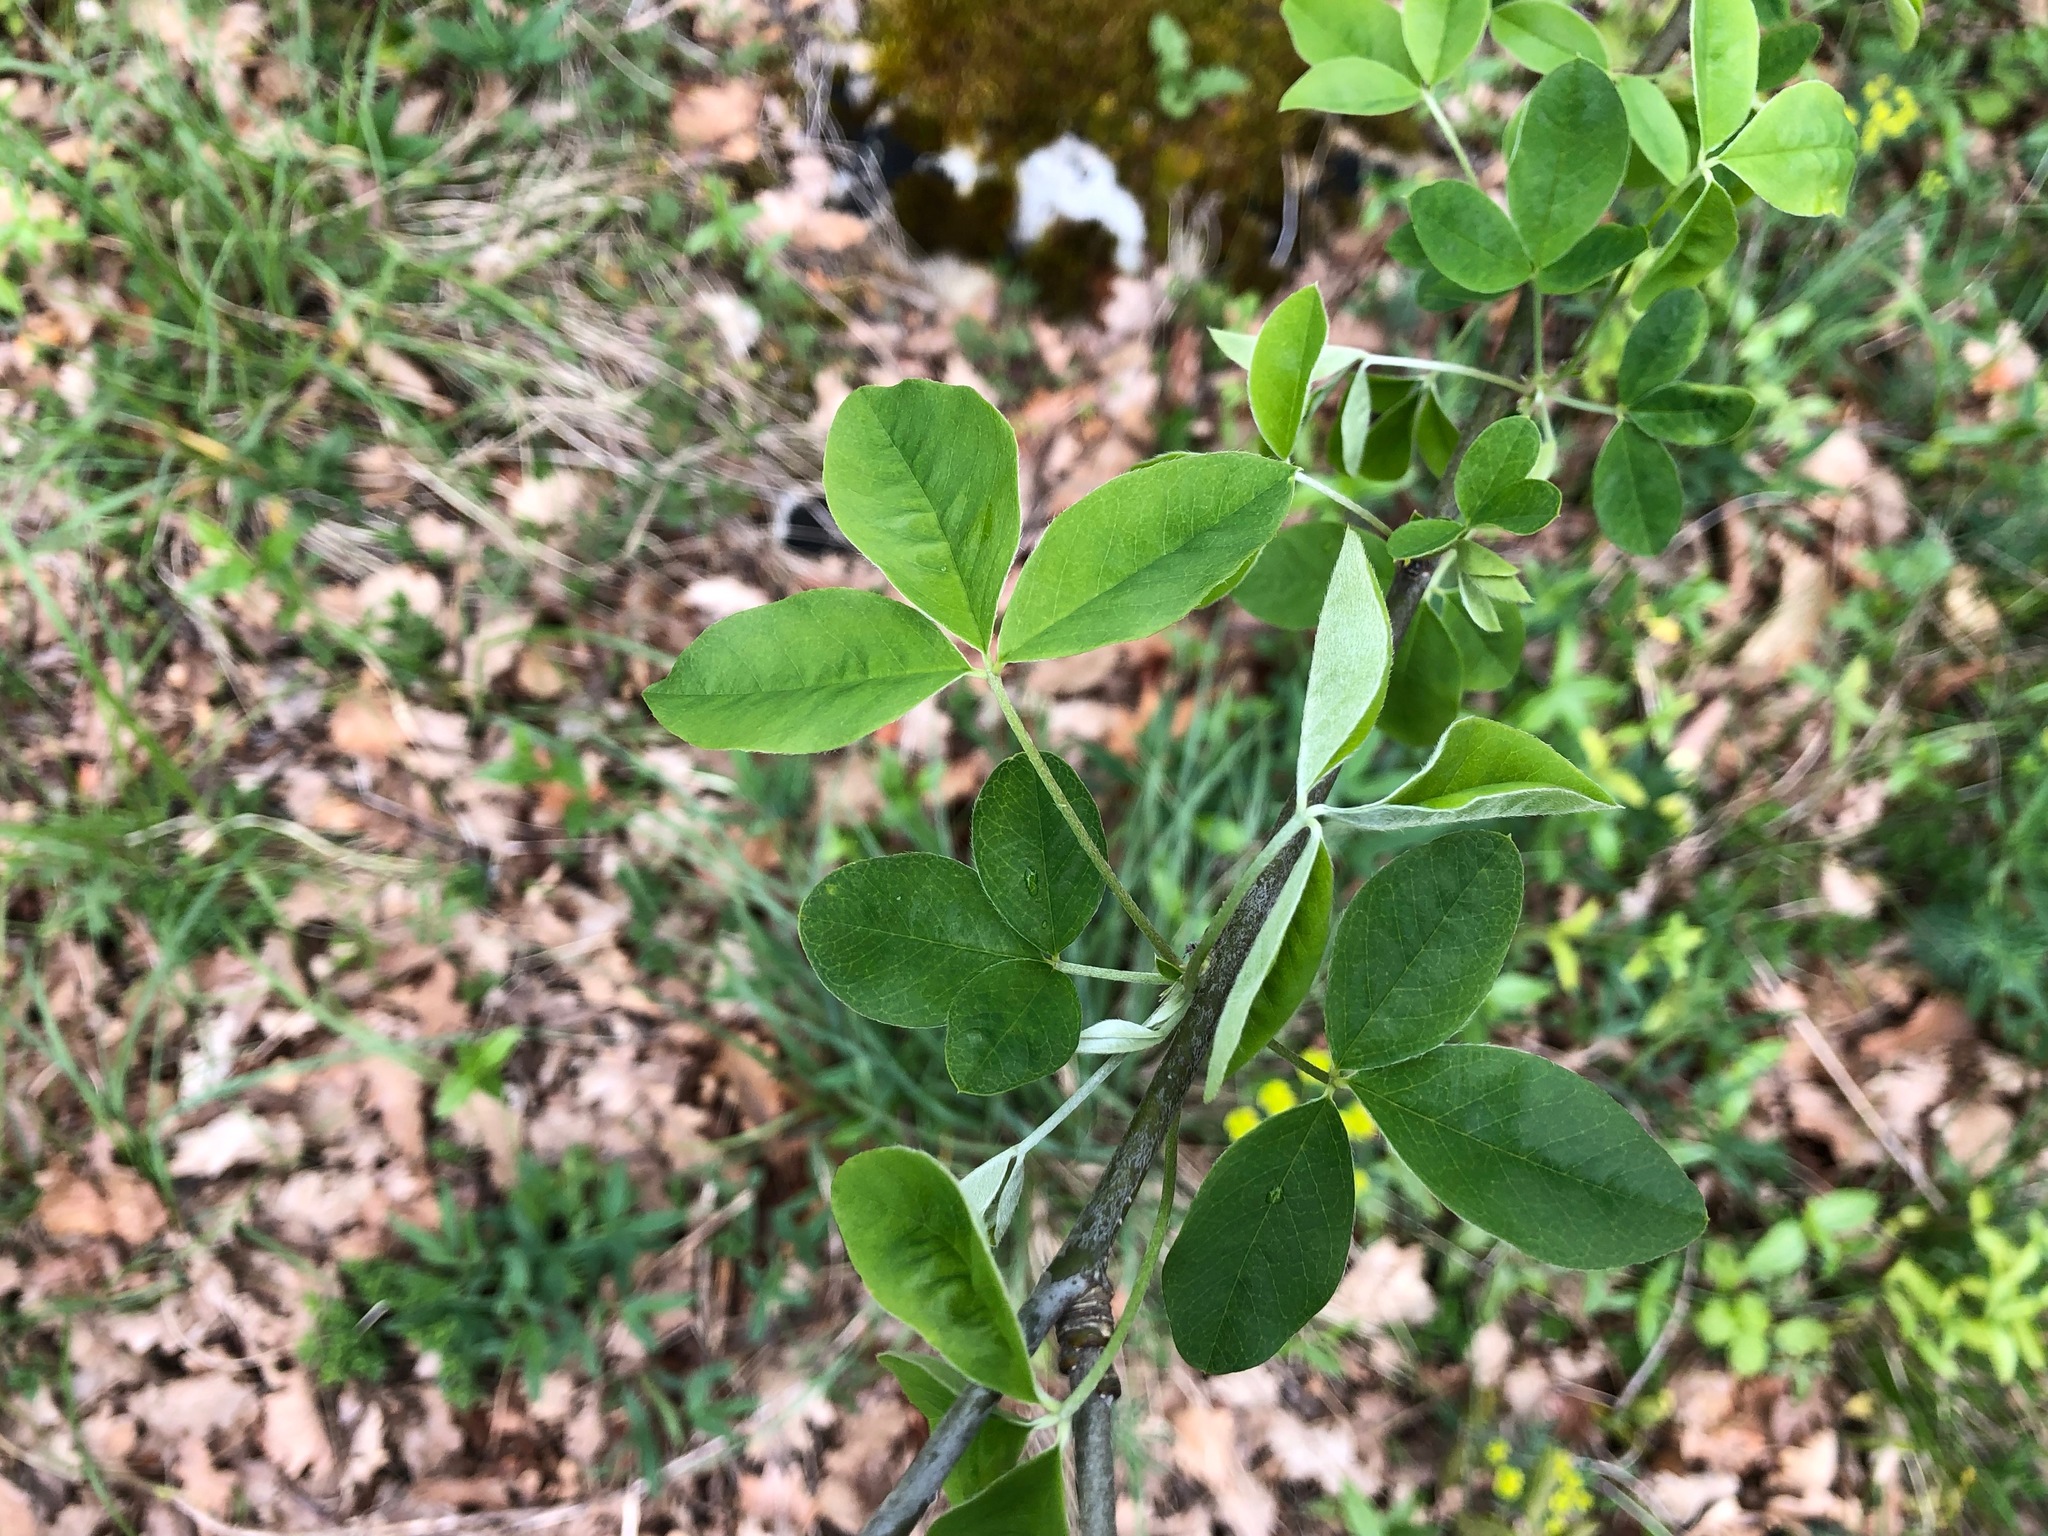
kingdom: Plantae
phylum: Tracheophyta
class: Magnoliopsida
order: Fabales
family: Fabaceae
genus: Laburnum
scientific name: Laburnum anagyroides
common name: Laburnum
